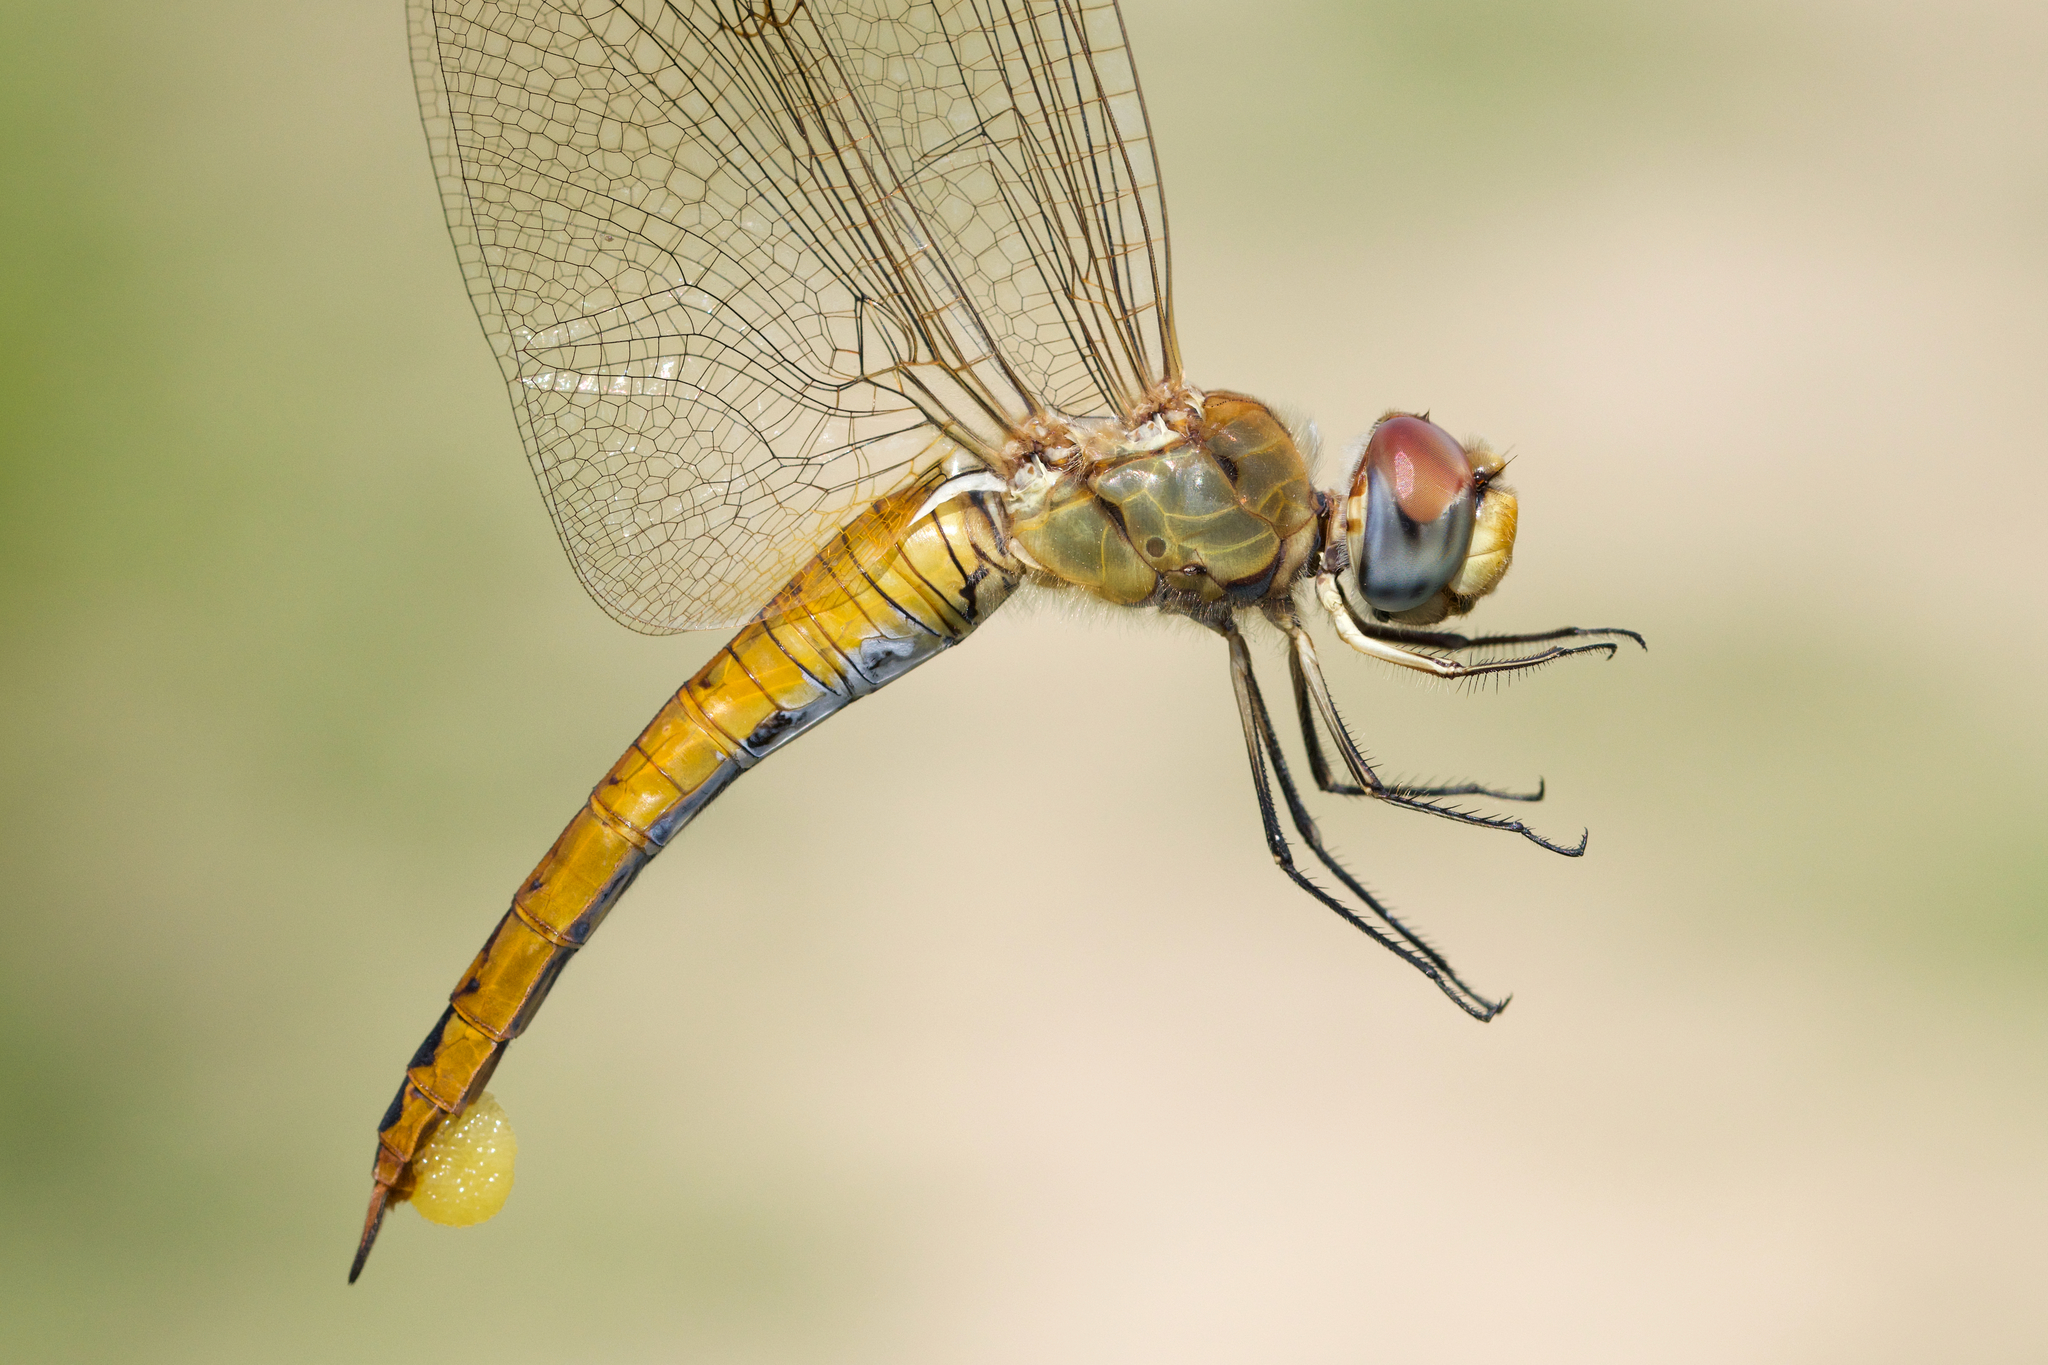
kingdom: Animalia
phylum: Arthropoda
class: Insecta
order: Odonata
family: Libellulidae
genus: Pantala
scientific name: Pantala flavescens
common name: Wandering glider
